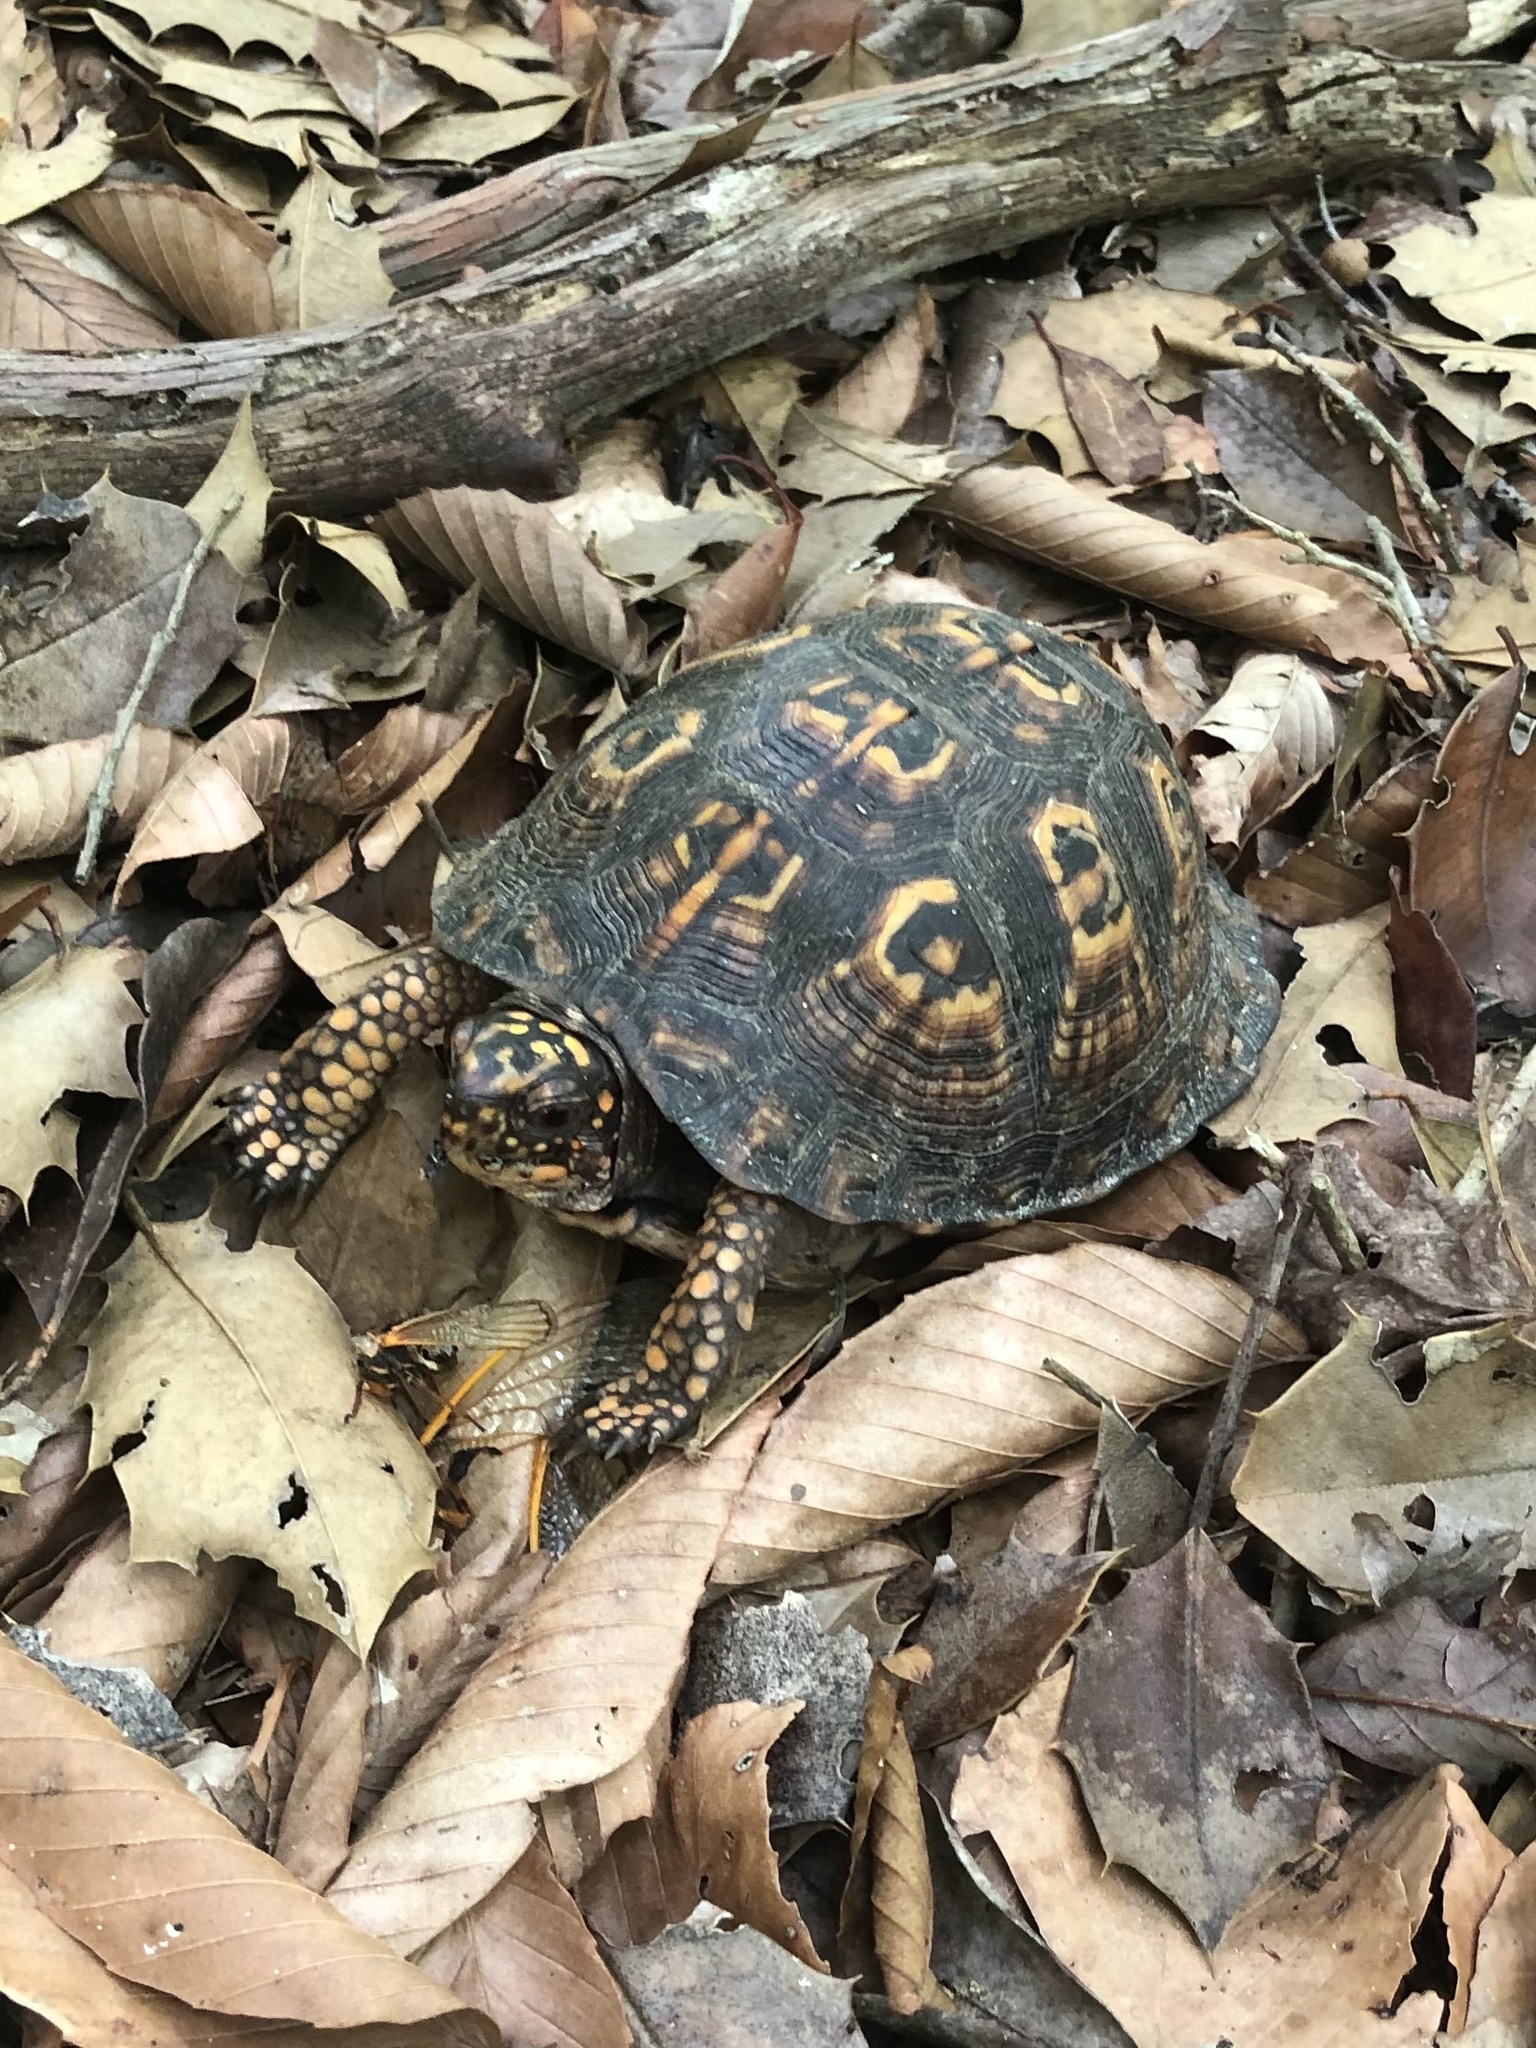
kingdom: Animalia
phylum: Chordata
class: Testudines
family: Emydidae
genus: Terrapene
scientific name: Terrapene carolina
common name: Common box turtle
